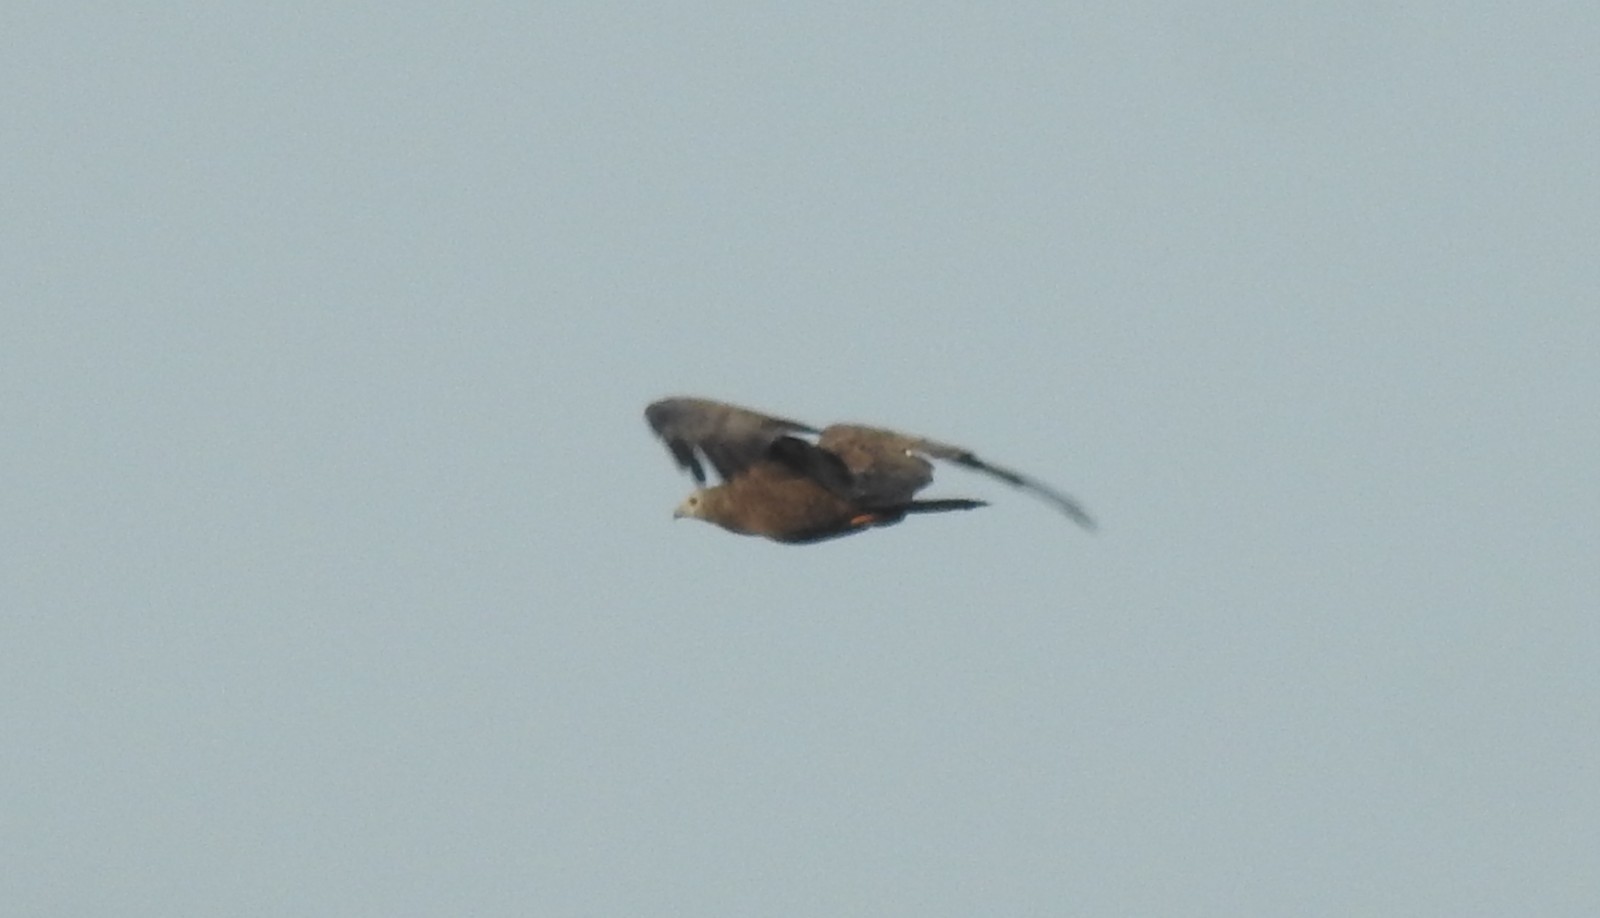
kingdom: Animalia
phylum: Chordata
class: Aves
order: Accipitriformes
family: Accipitridae
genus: Pernis
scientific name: Pernis ptilorhynchus
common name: Crested honey buzzard
